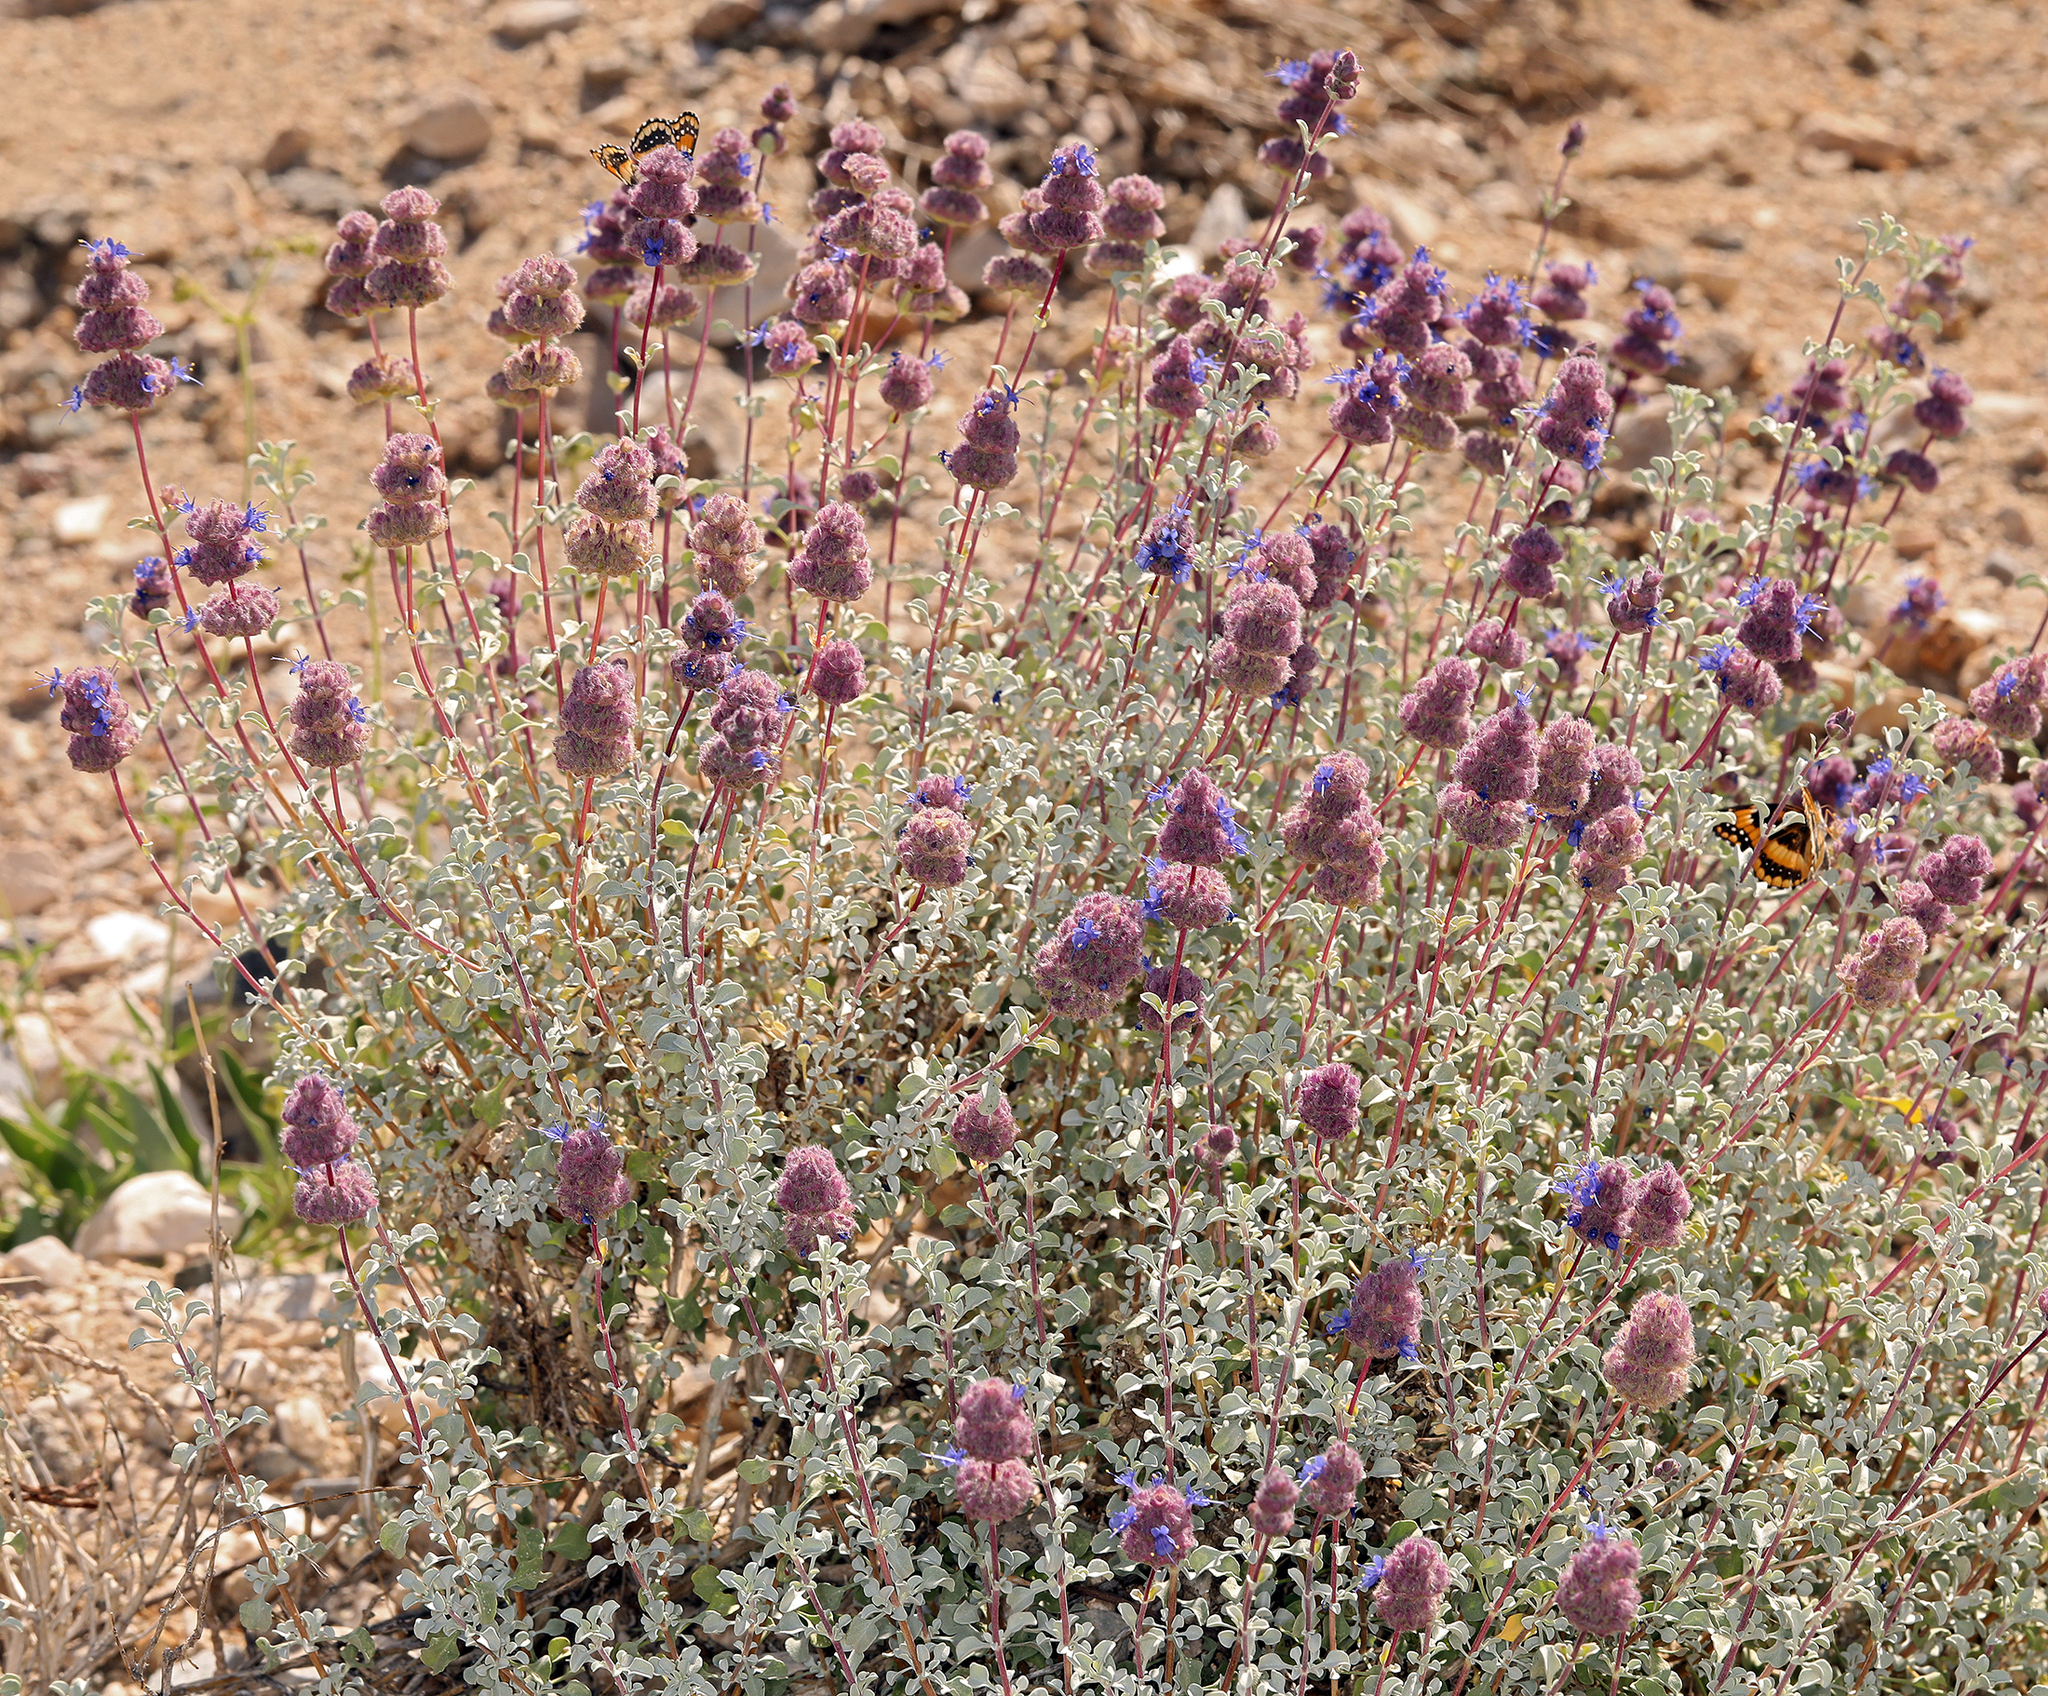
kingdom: Plantae
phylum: Tracheophyta
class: Magnoliopsida
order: Lamiales
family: Lamiaceae
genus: Salvia
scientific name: Salvia dorrii
